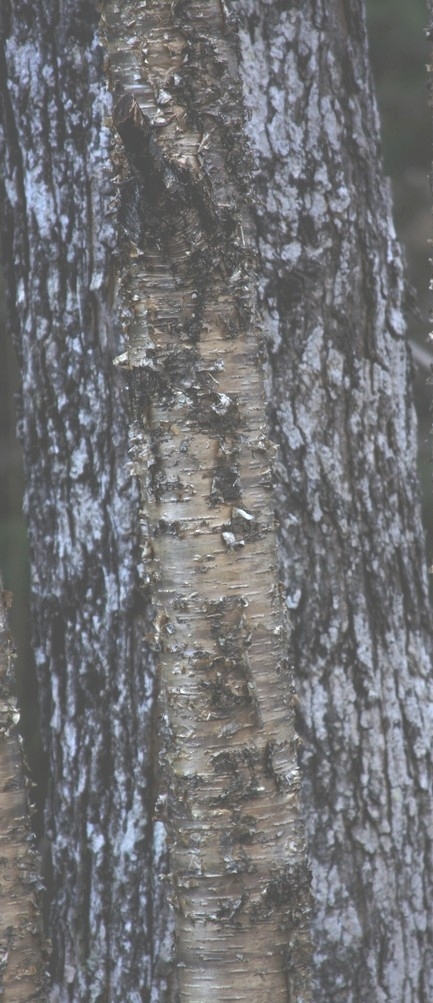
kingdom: Plantae
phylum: Tracheophyta
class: Magnoliopsida
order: Fagales
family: Betulaceae
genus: Betula
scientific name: Betula alleghaniensis
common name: Yellow birch
